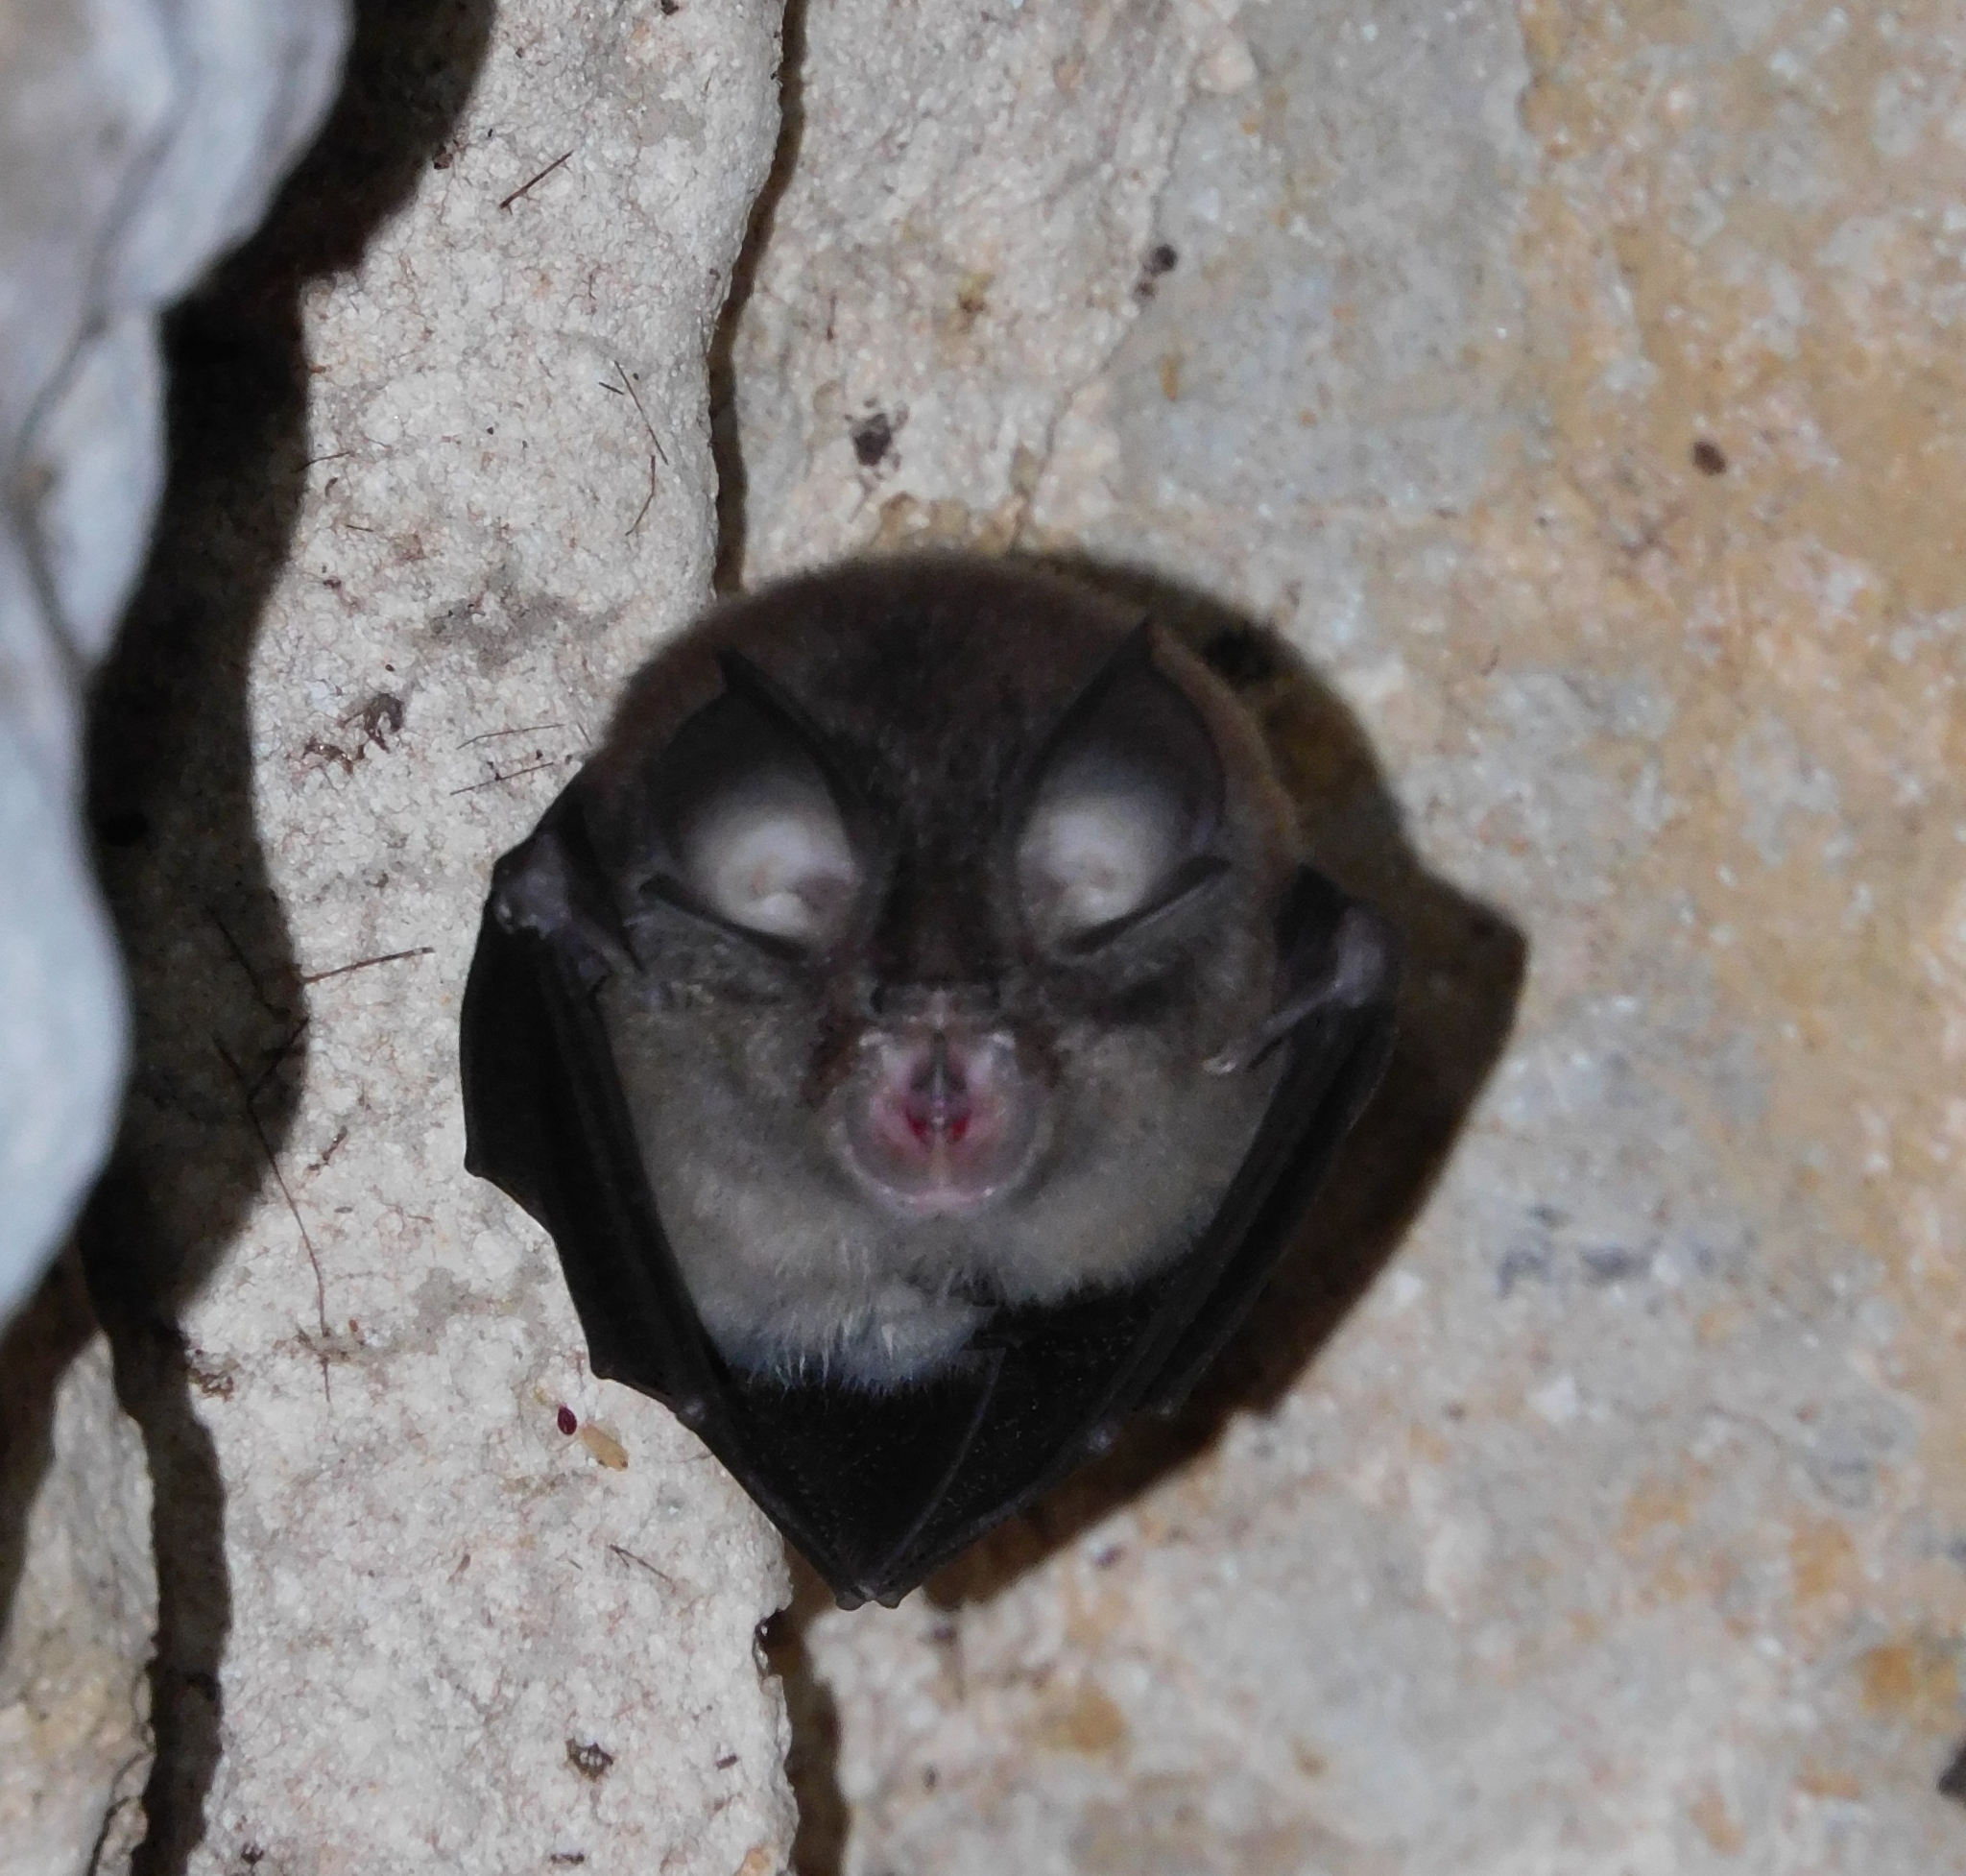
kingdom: Animalia
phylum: Chordata
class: Mammalia
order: Chiroptera
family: Rhinolophidae
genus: Rhinolophus
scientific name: Rhinolophus hipposideros
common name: Lesser horseshoe bat
